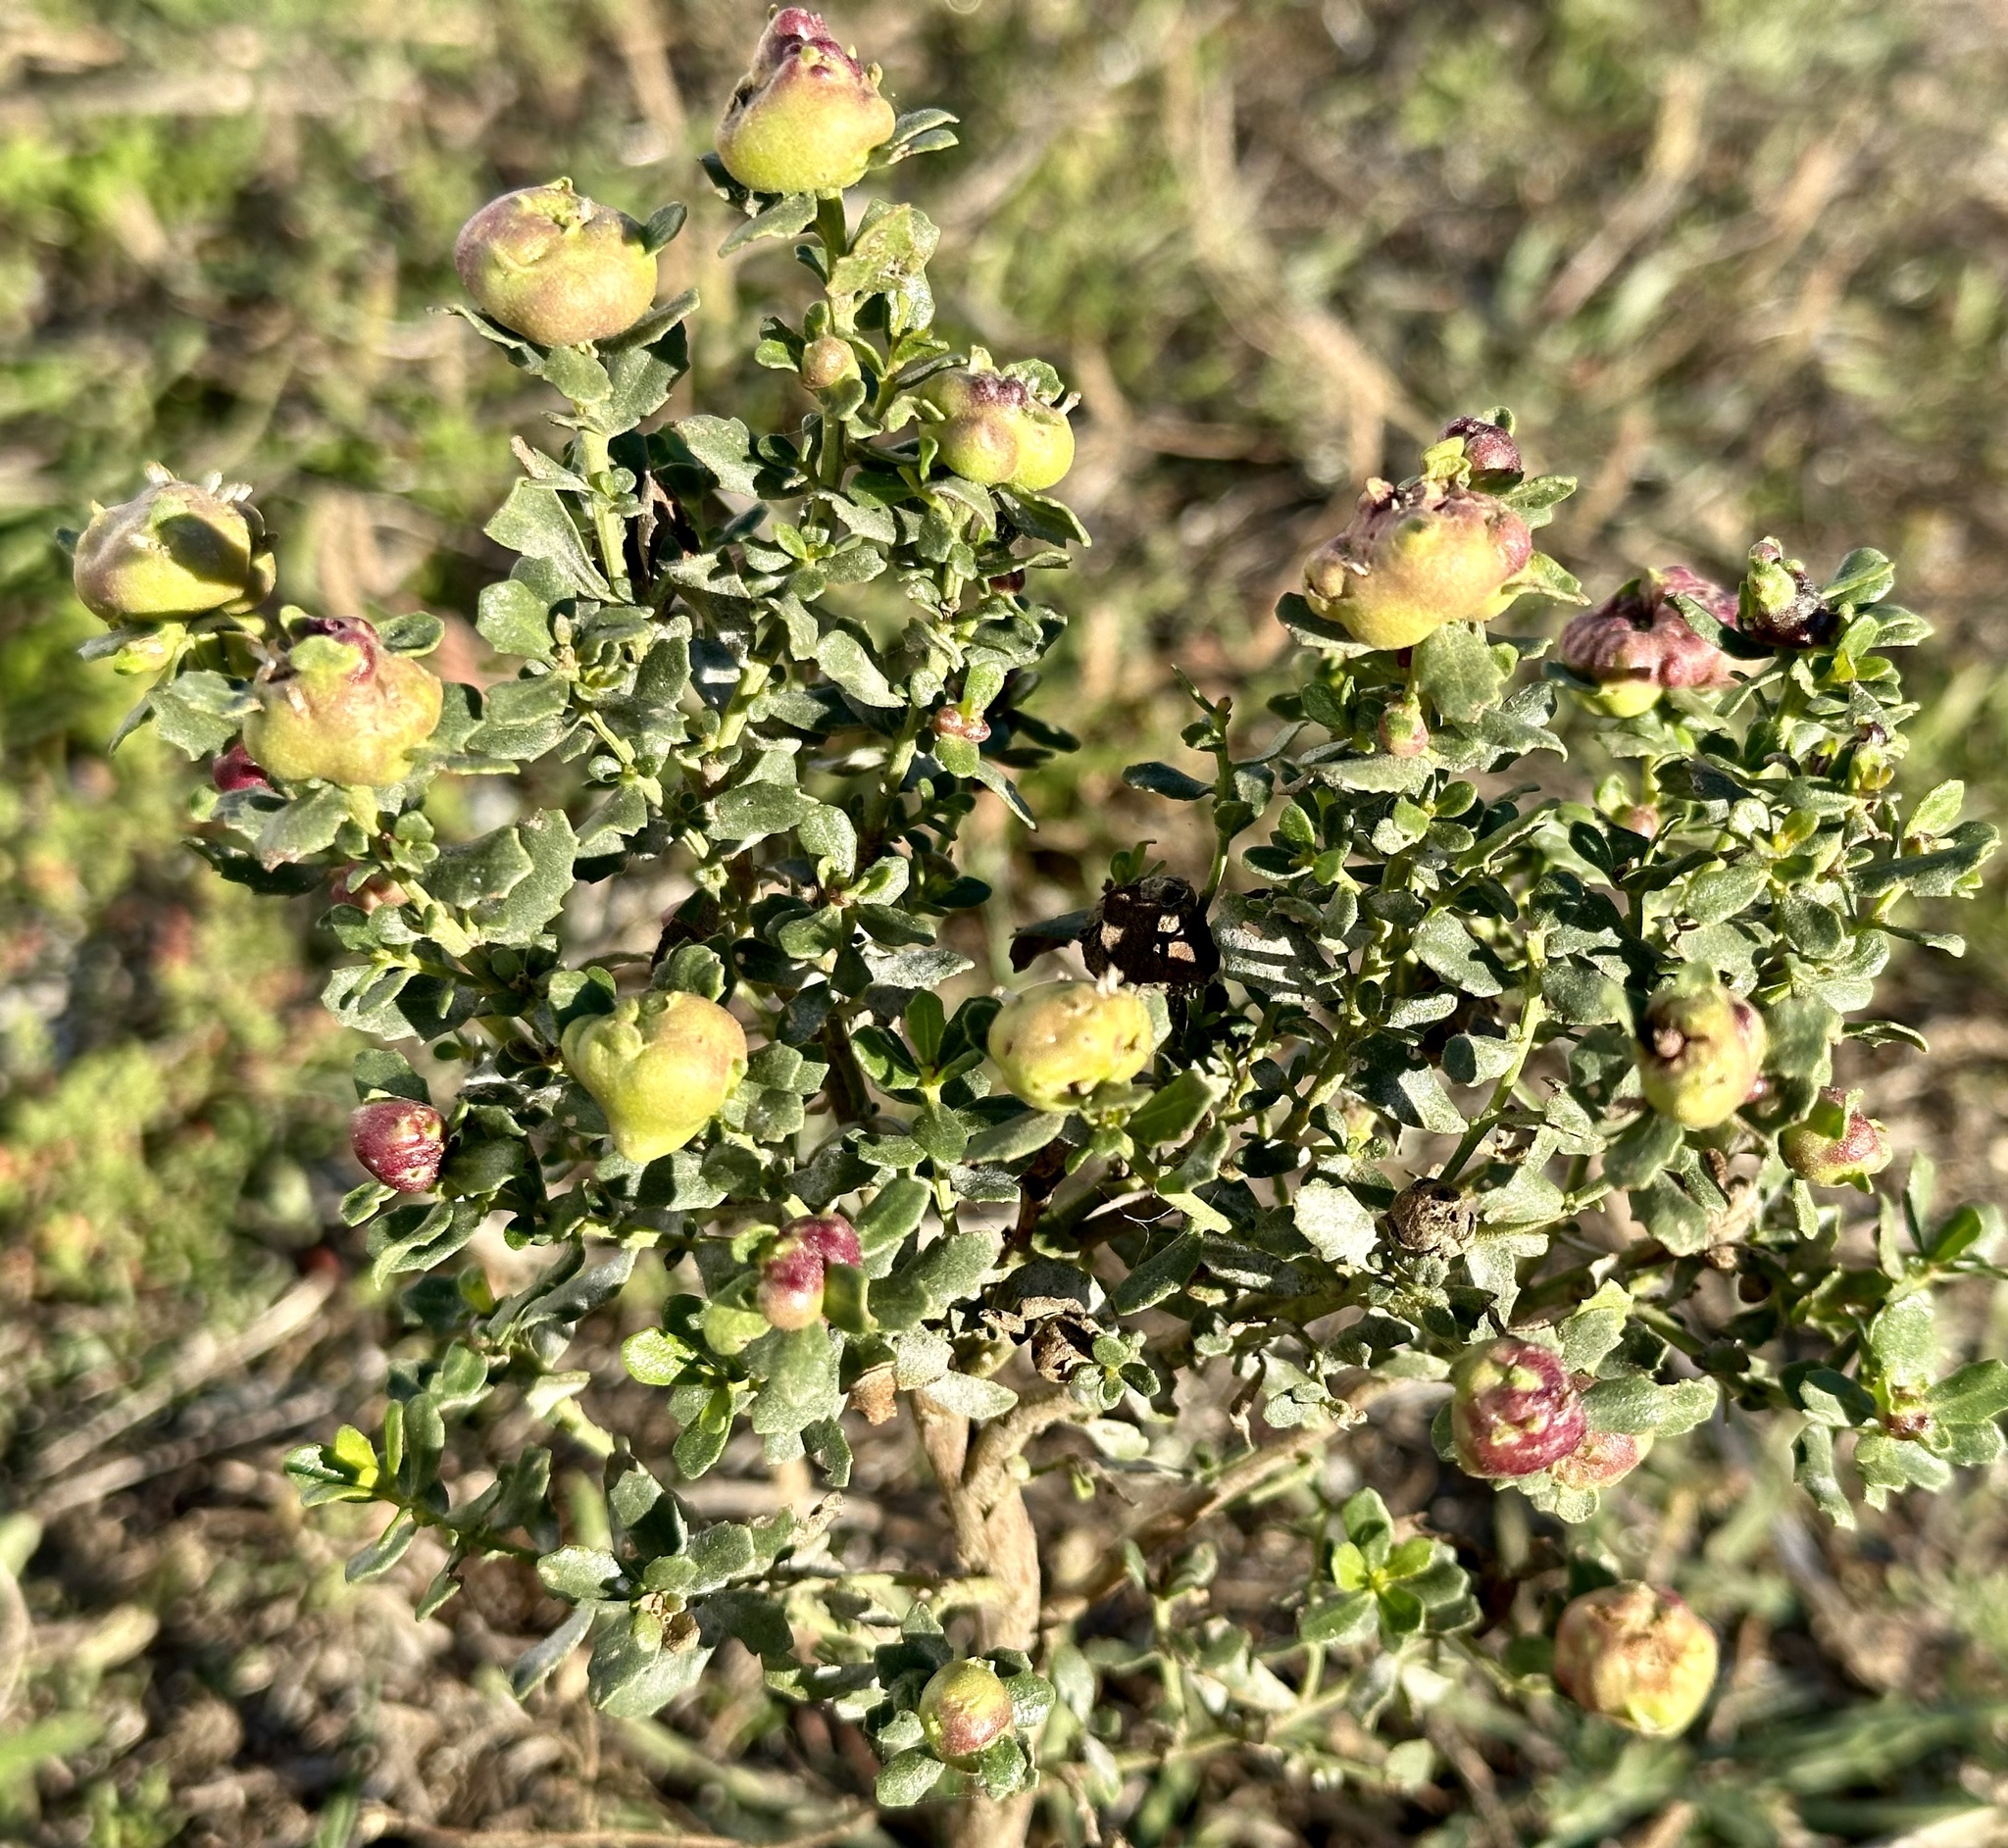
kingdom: Animalia
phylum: Arthropoda
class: Insecta
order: Diptera
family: Cecidomyiidae
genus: Rhopalomyia
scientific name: Rhopalomyia californica
